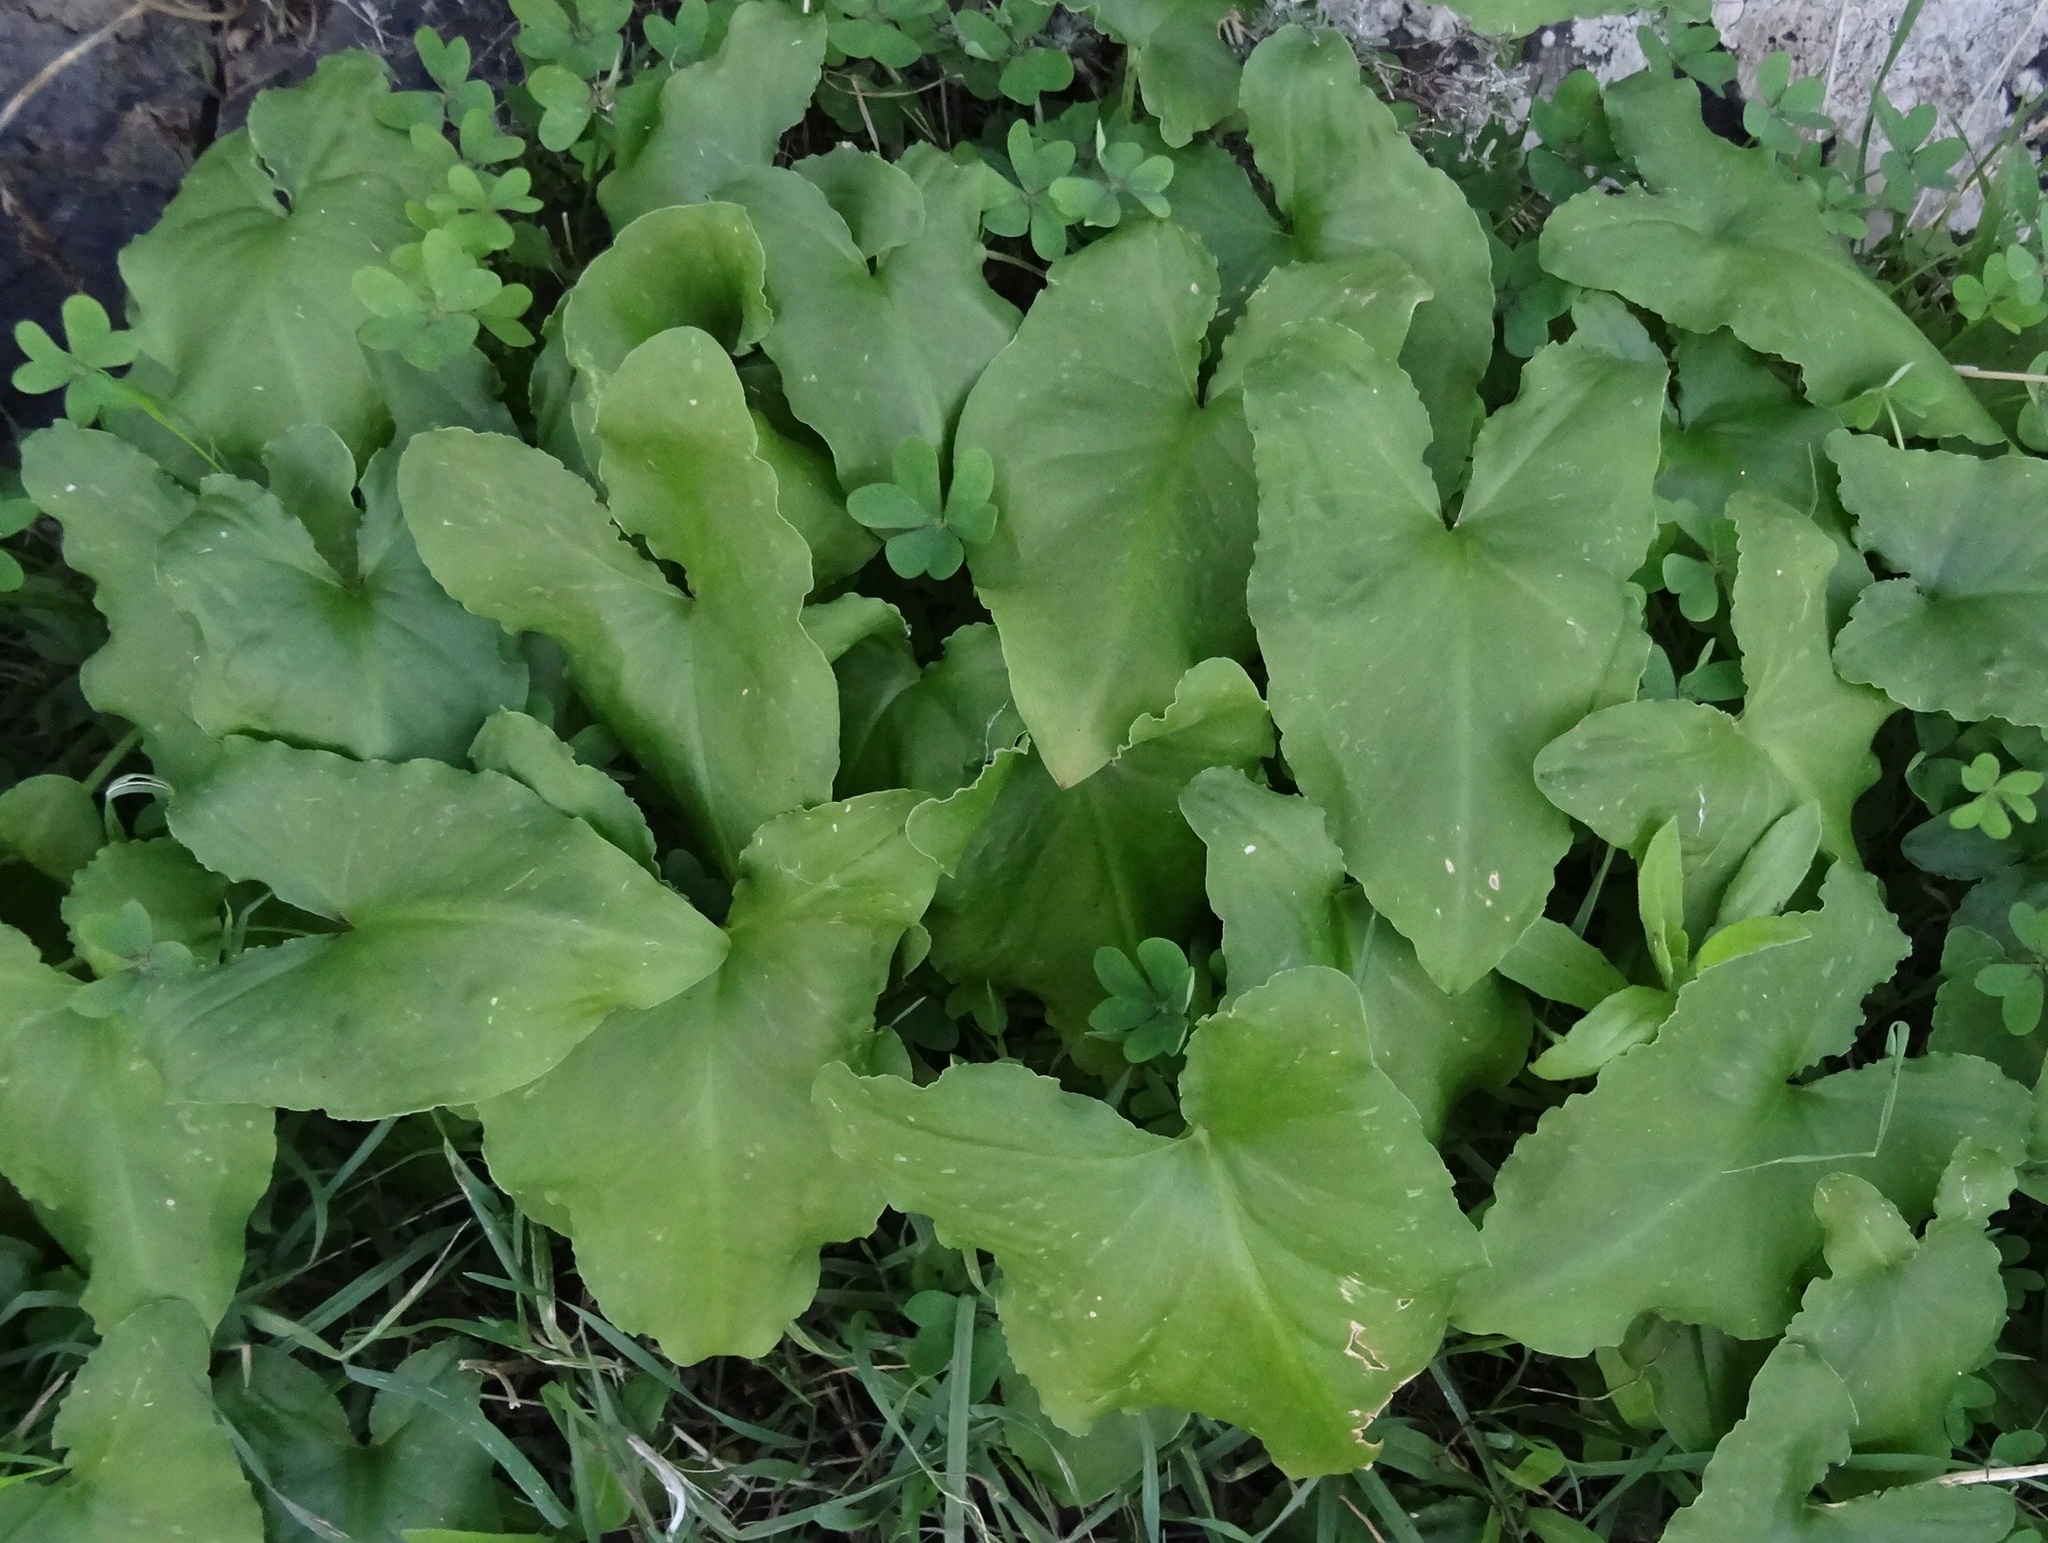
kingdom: Plantae
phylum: Tracheophyta
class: Liliopsida
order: Alismatales
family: Araceae
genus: Arisarum
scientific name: Arisarum simorrhinum
